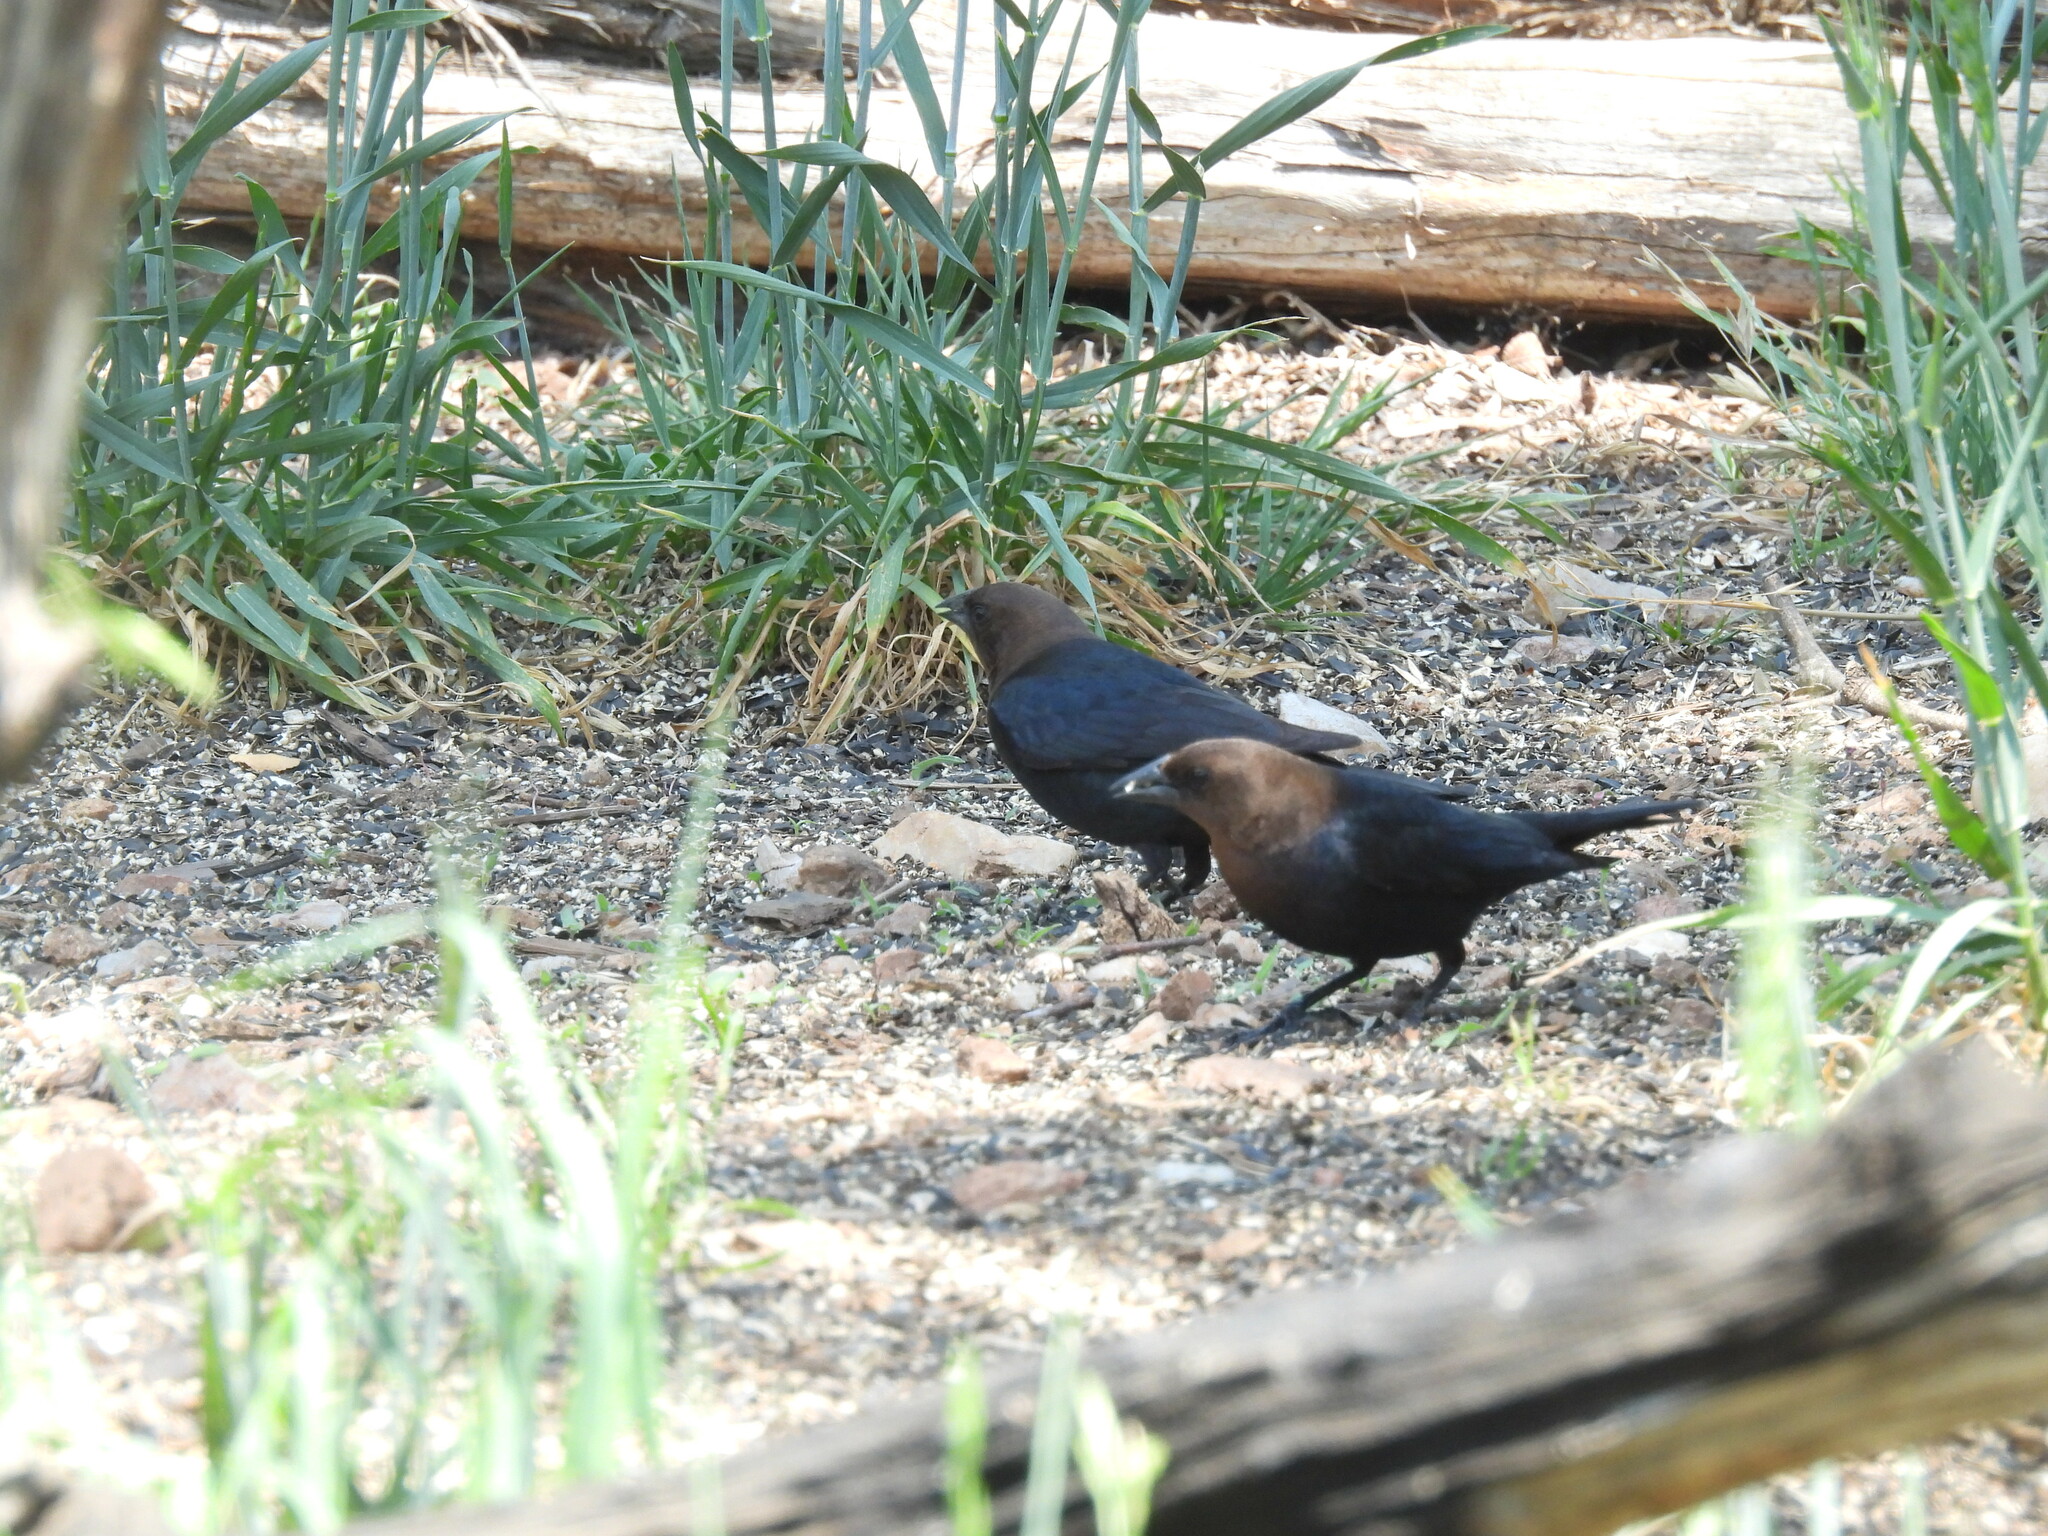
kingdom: Animalia
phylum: Chordata
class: Aves
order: Passeriformes
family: Icteridae
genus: Molothrus
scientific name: Molothrus ater
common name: Brown-headed cowbird
